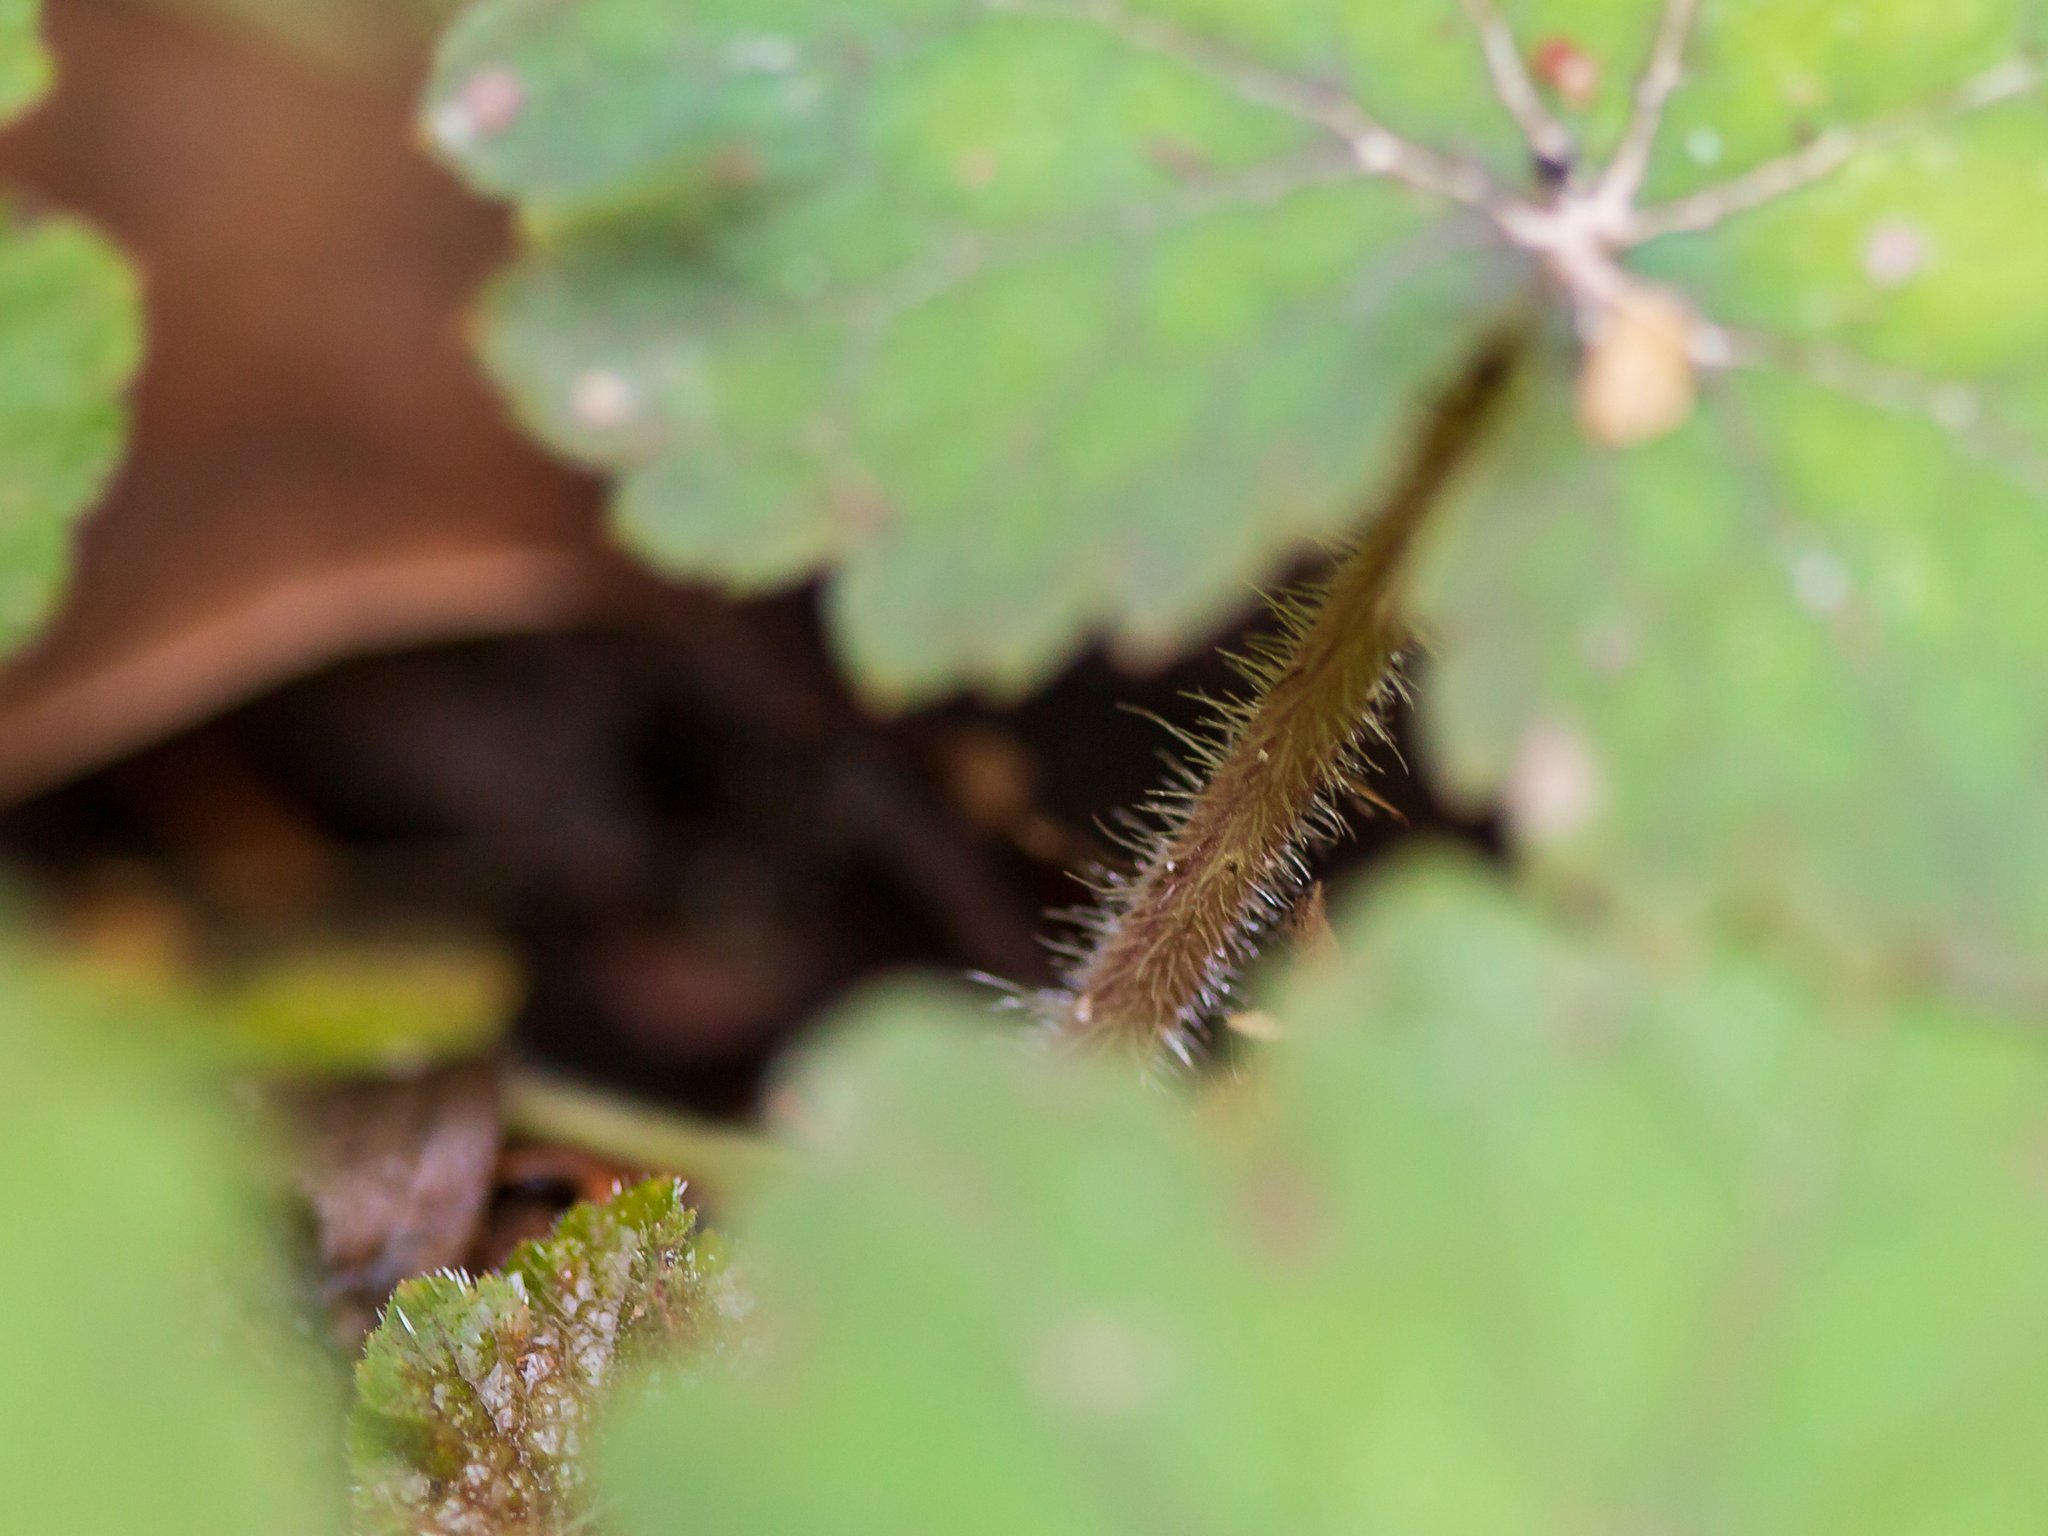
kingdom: Plantae
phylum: Tracheophyta
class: Magnoliopsida
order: Saxifragales
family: Saxifragaceae
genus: Tellima
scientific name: Tellima grandiflora
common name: Fringecups
